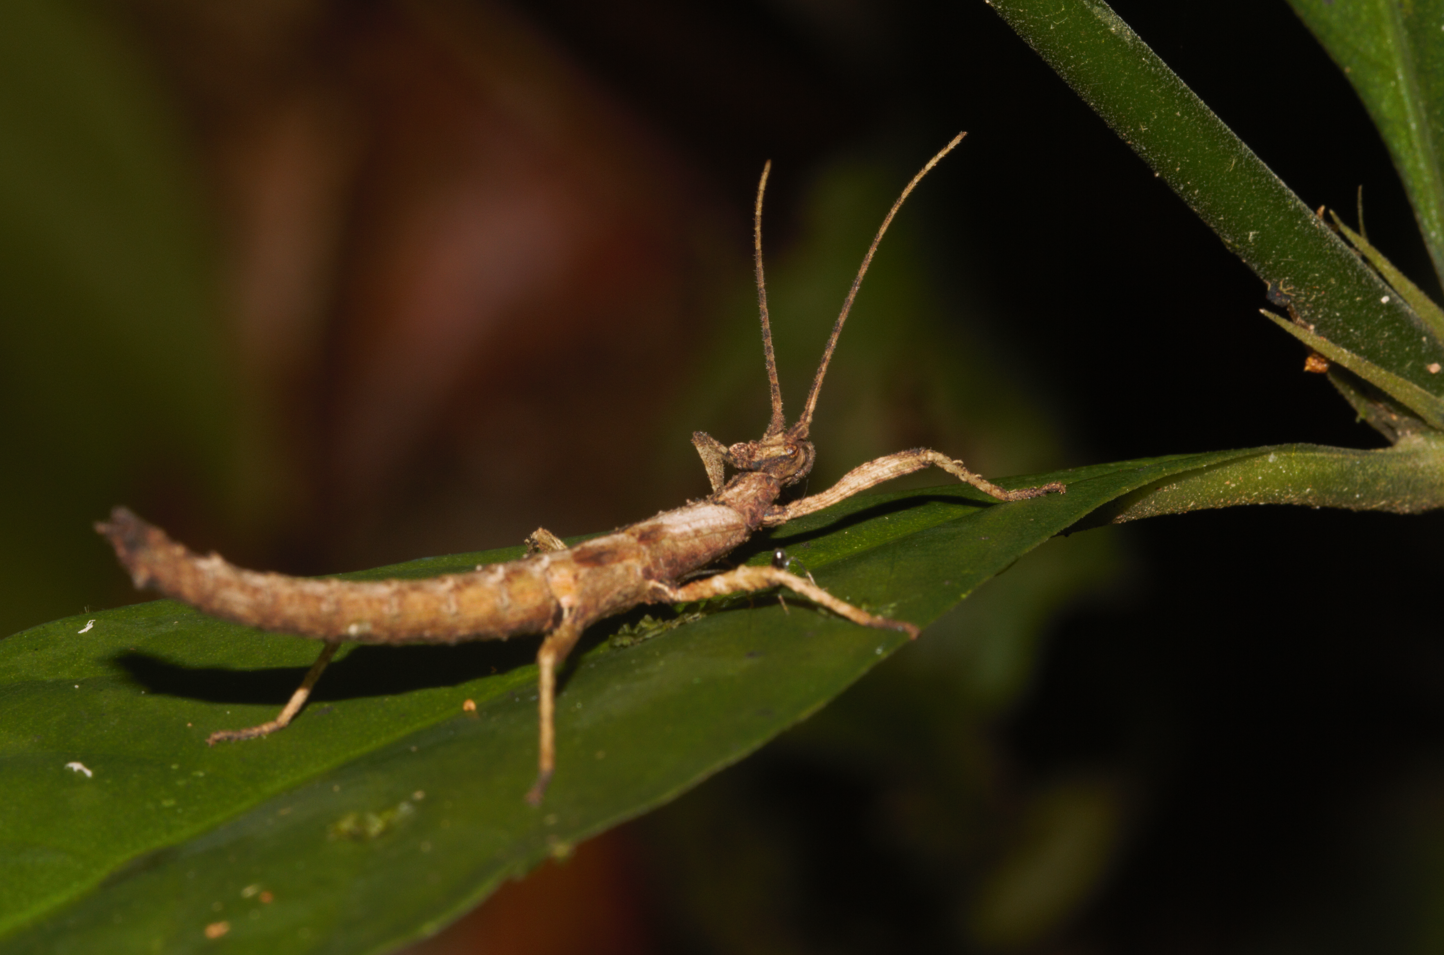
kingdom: Animalia
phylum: Arthropoda
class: Insecta
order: Phasmida
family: Pseudophasmatidae
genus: Creoxylus
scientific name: Creoxylus
